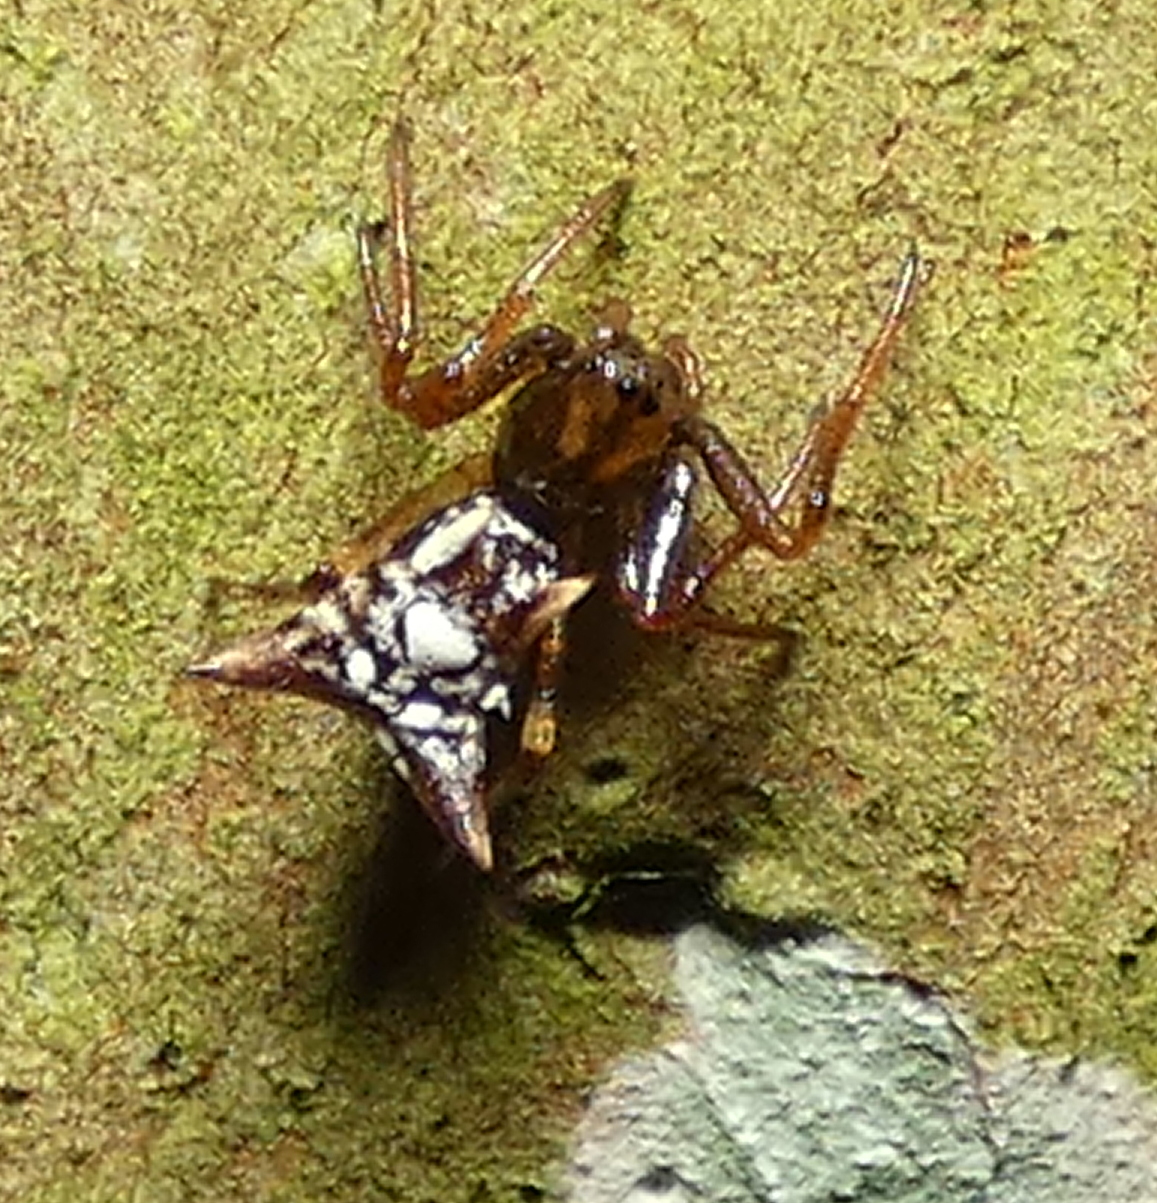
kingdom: Animalia
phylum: Arthropoda
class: Arachnida
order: Araneae
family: Araneidae
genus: Micrathena
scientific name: Micrathena evansi
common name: Orb weavers
